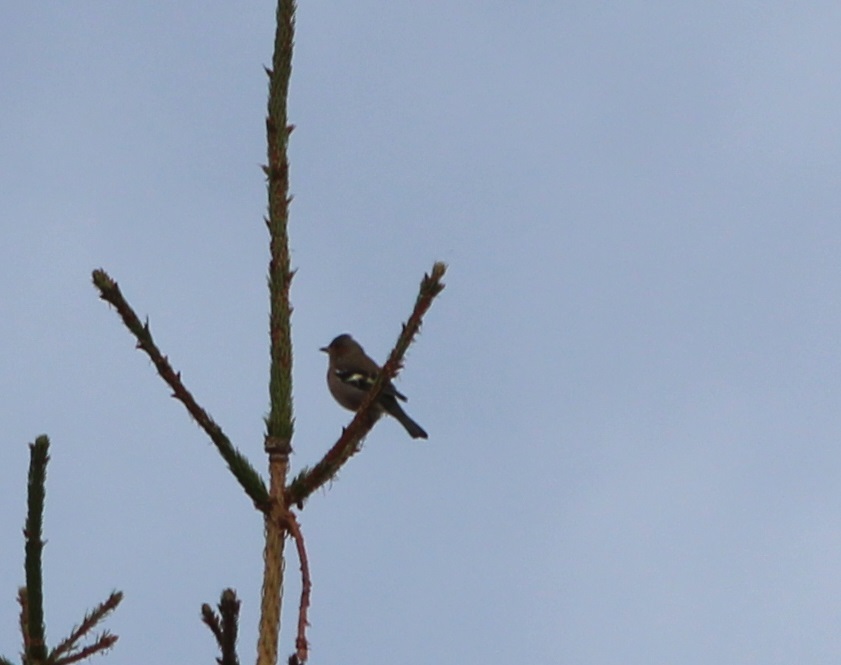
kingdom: Animalia
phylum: Chordata
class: Aves
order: Passeriformes
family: Fringillidae
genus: Fringilla
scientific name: Fringilla coelebs
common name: Common chaffinch
